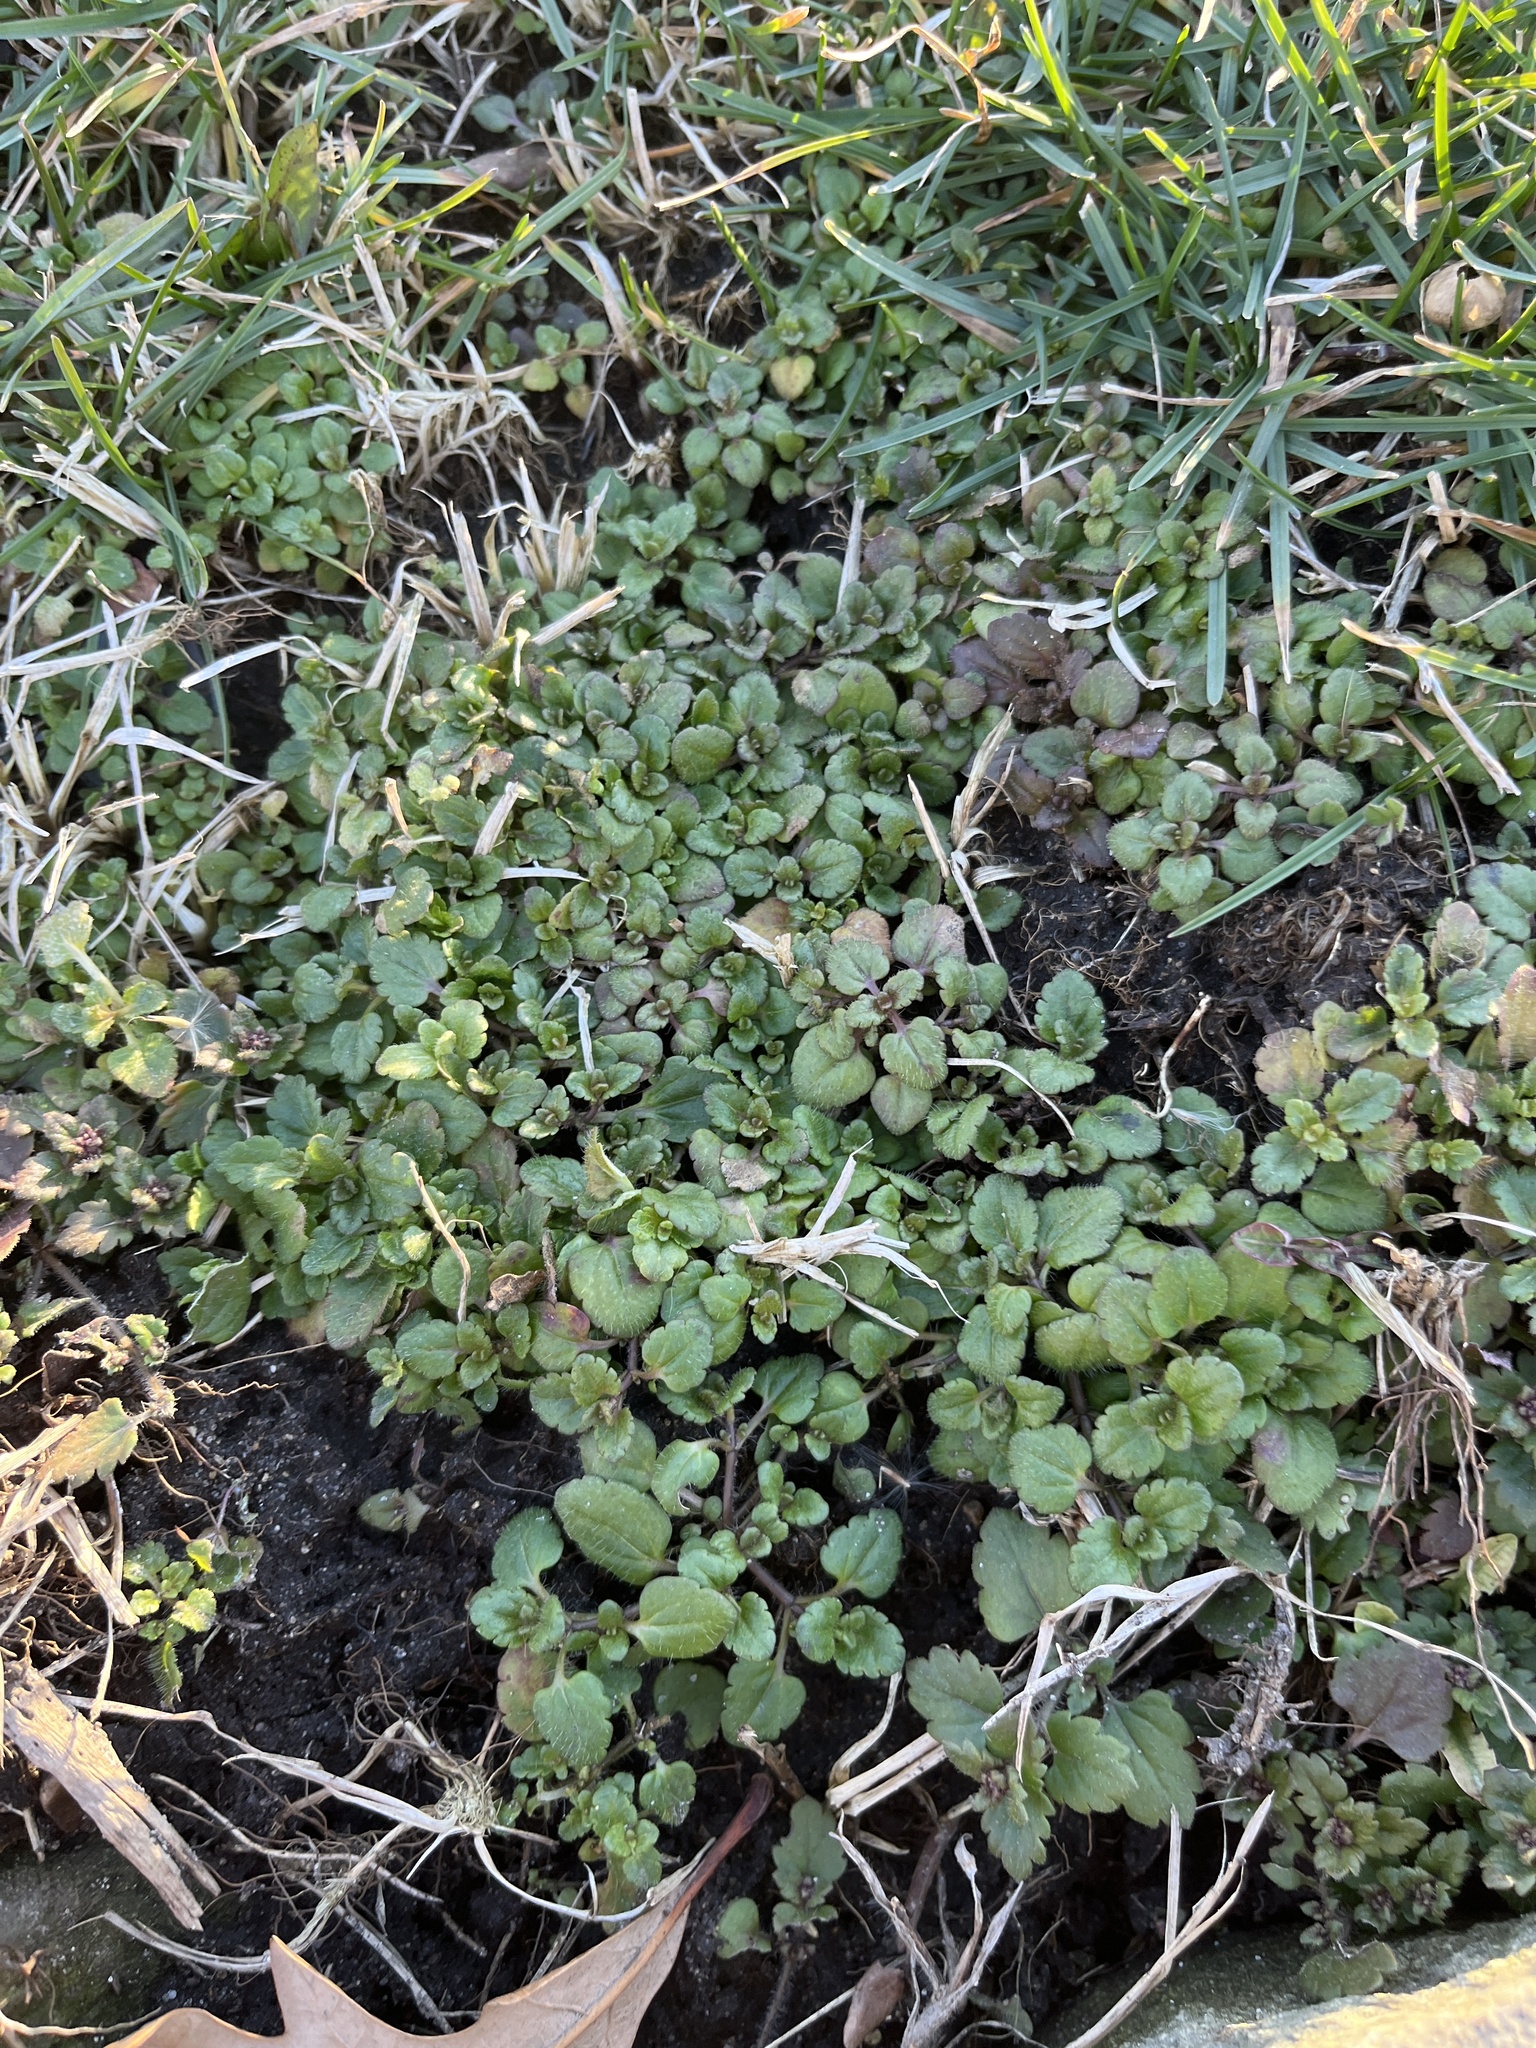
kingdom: Plantae
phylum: Tracheophyta
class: Magnoliopsida
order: Lamiales
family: Plantaginaceae
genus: Veronica
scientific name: Veronica arvensis
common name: Corn speedwell
